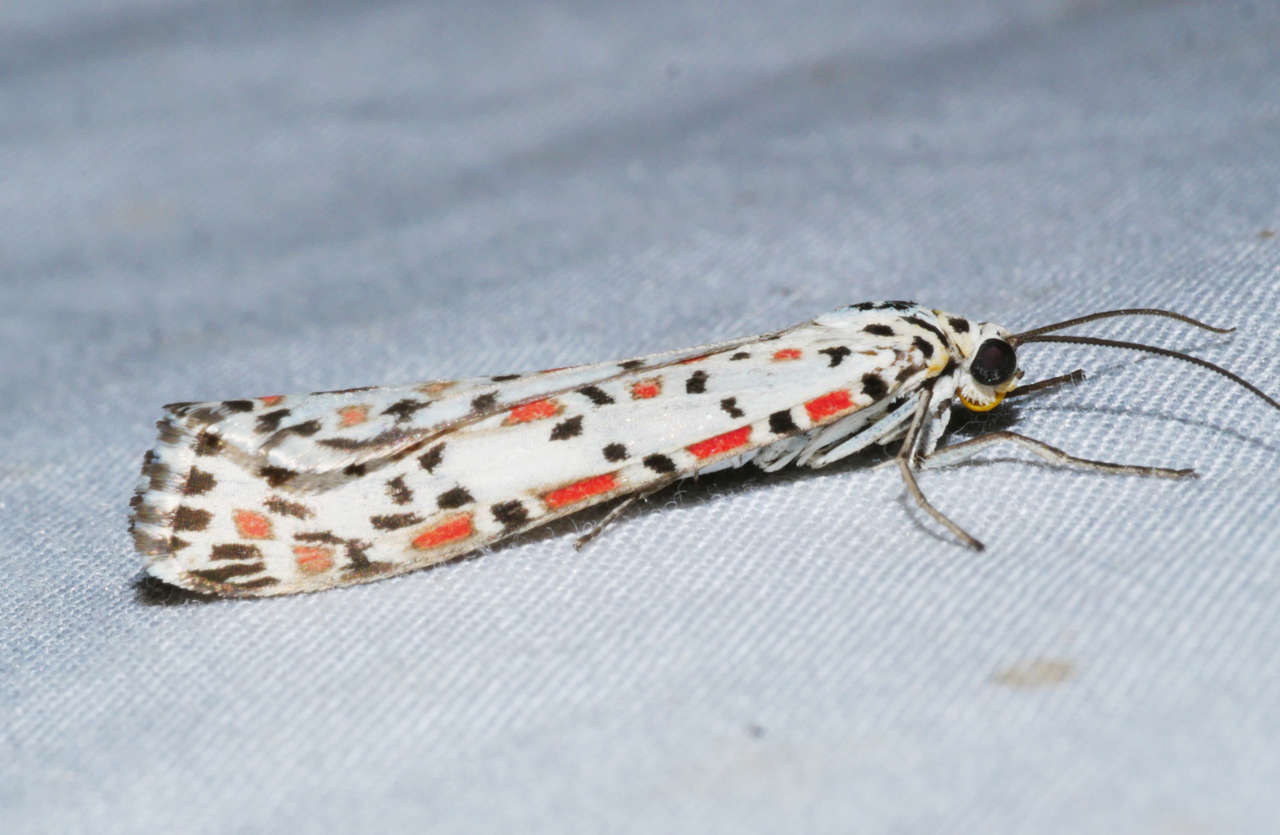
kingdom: Animalia
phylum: Arthropoda
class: Insecta
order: Lepidoptera
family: Erebidae
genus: Utetheisa
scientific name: Utetheisa pulchelloides
